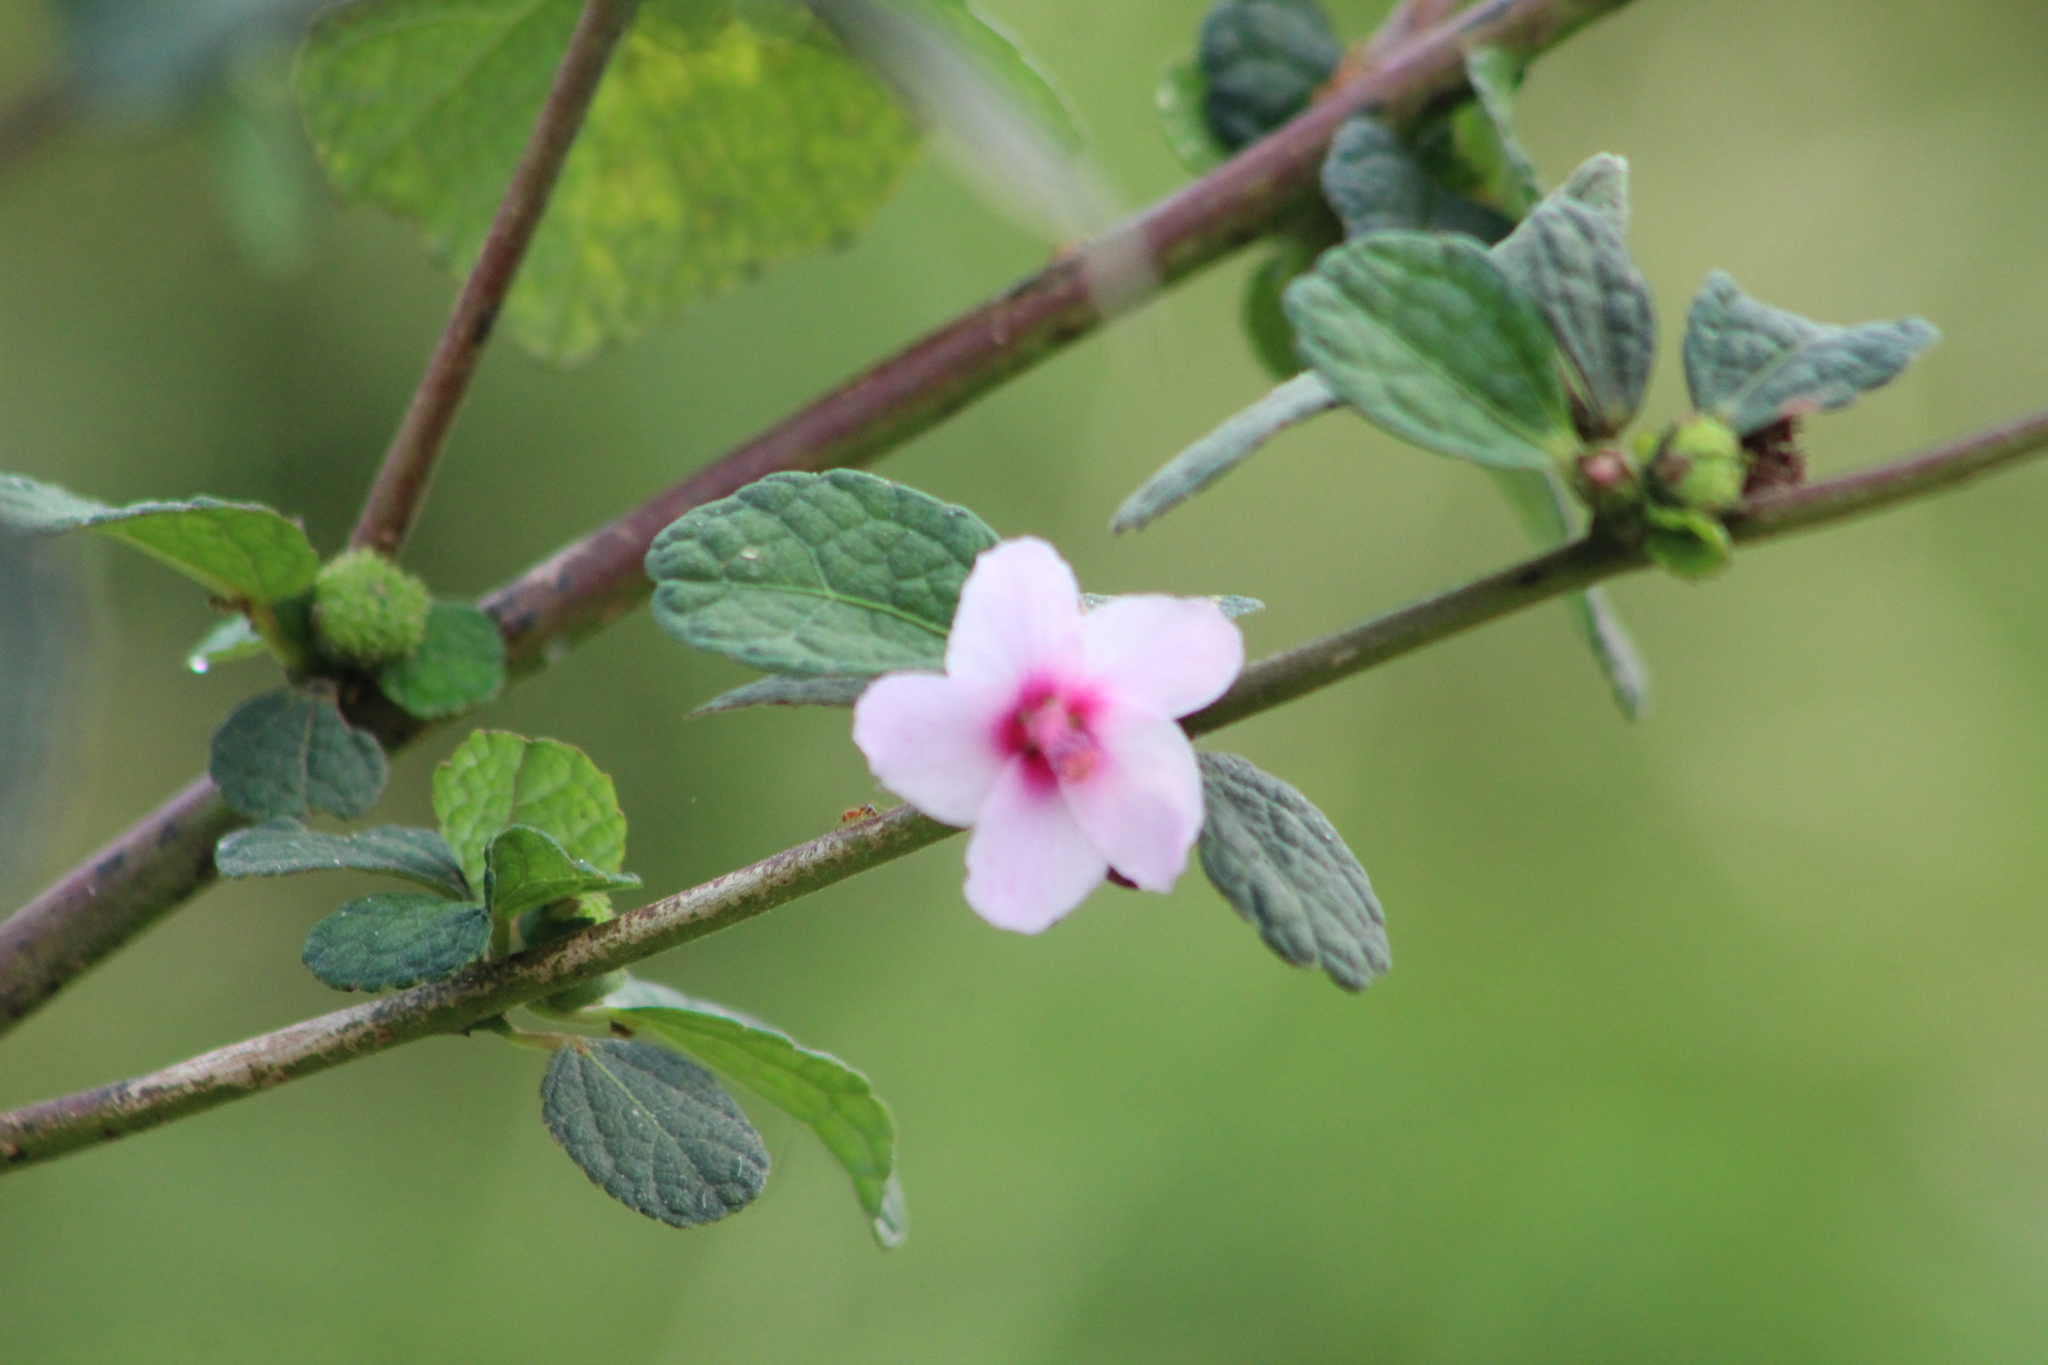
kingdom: Plantae
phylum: Tracheophyta
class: Magnoliopsida
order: Malvales
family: Malvaceae
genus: Urena
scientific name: Urena lobata
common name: Caesarweed
